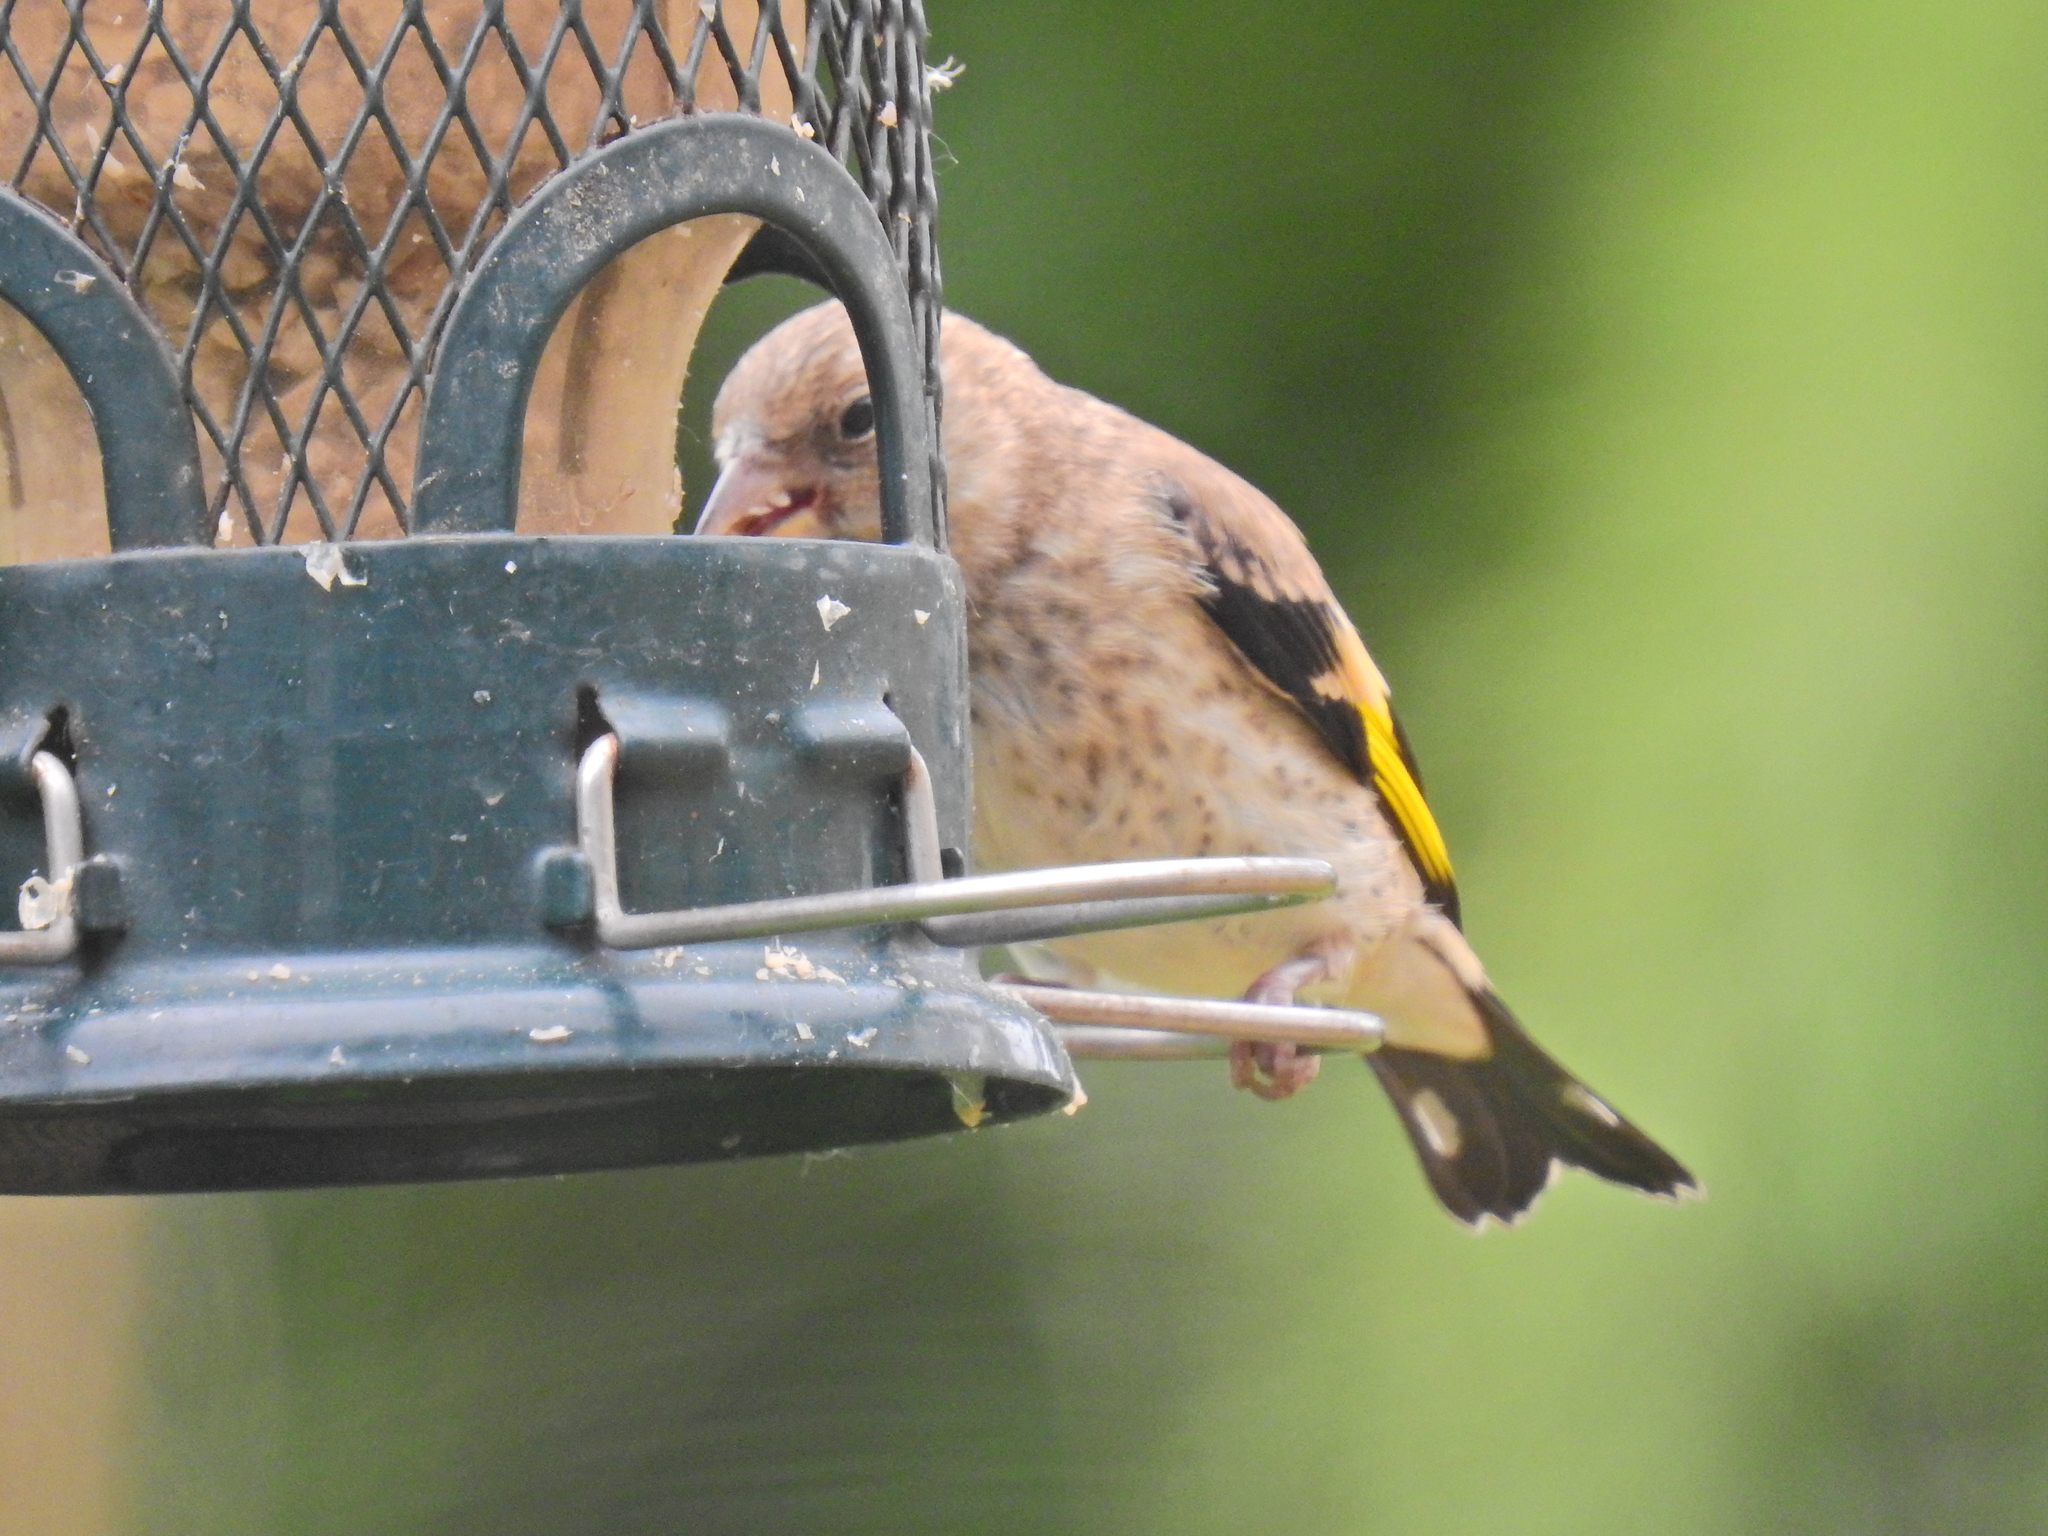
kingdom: Animalia
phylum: Chordata
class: Aves
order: Passeriformes
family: Fringillidae
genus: Carduelis
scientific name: Carduelis carduelis
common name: European goldfinch
